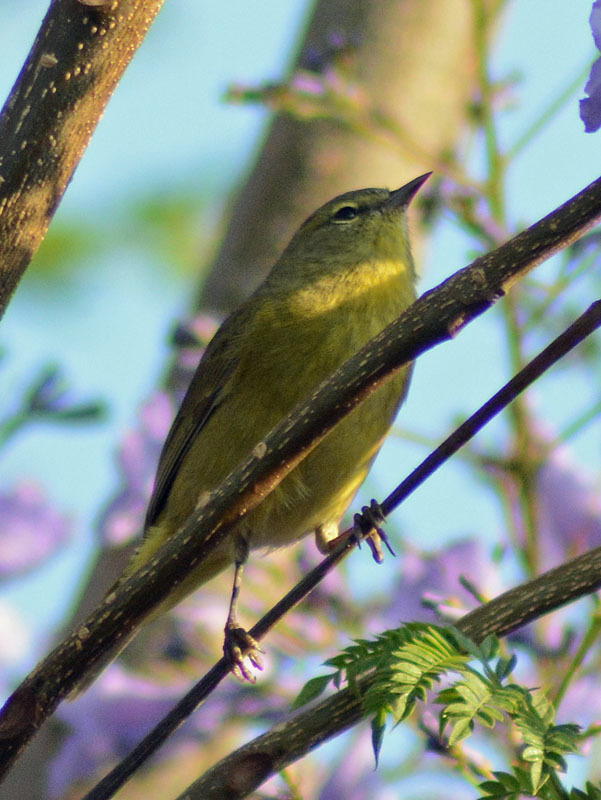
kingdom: Animalia
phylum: Chordata
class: Aves
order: Passeriformes
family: Parulidae
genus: Leiothlypis
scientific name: Leiothlypis celata
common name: Orange-crowned warbler
